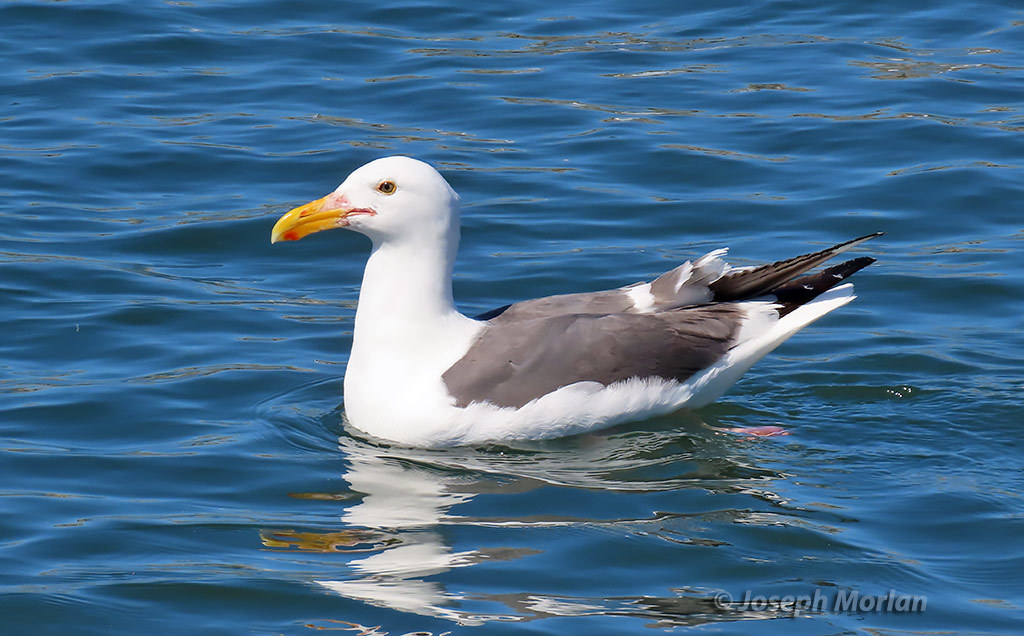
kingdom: Animalia
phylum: Chordata
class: Aves
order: Charadriiformes
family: Laridae
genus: Larus
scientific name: Larus occidentalis
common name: Western gull
